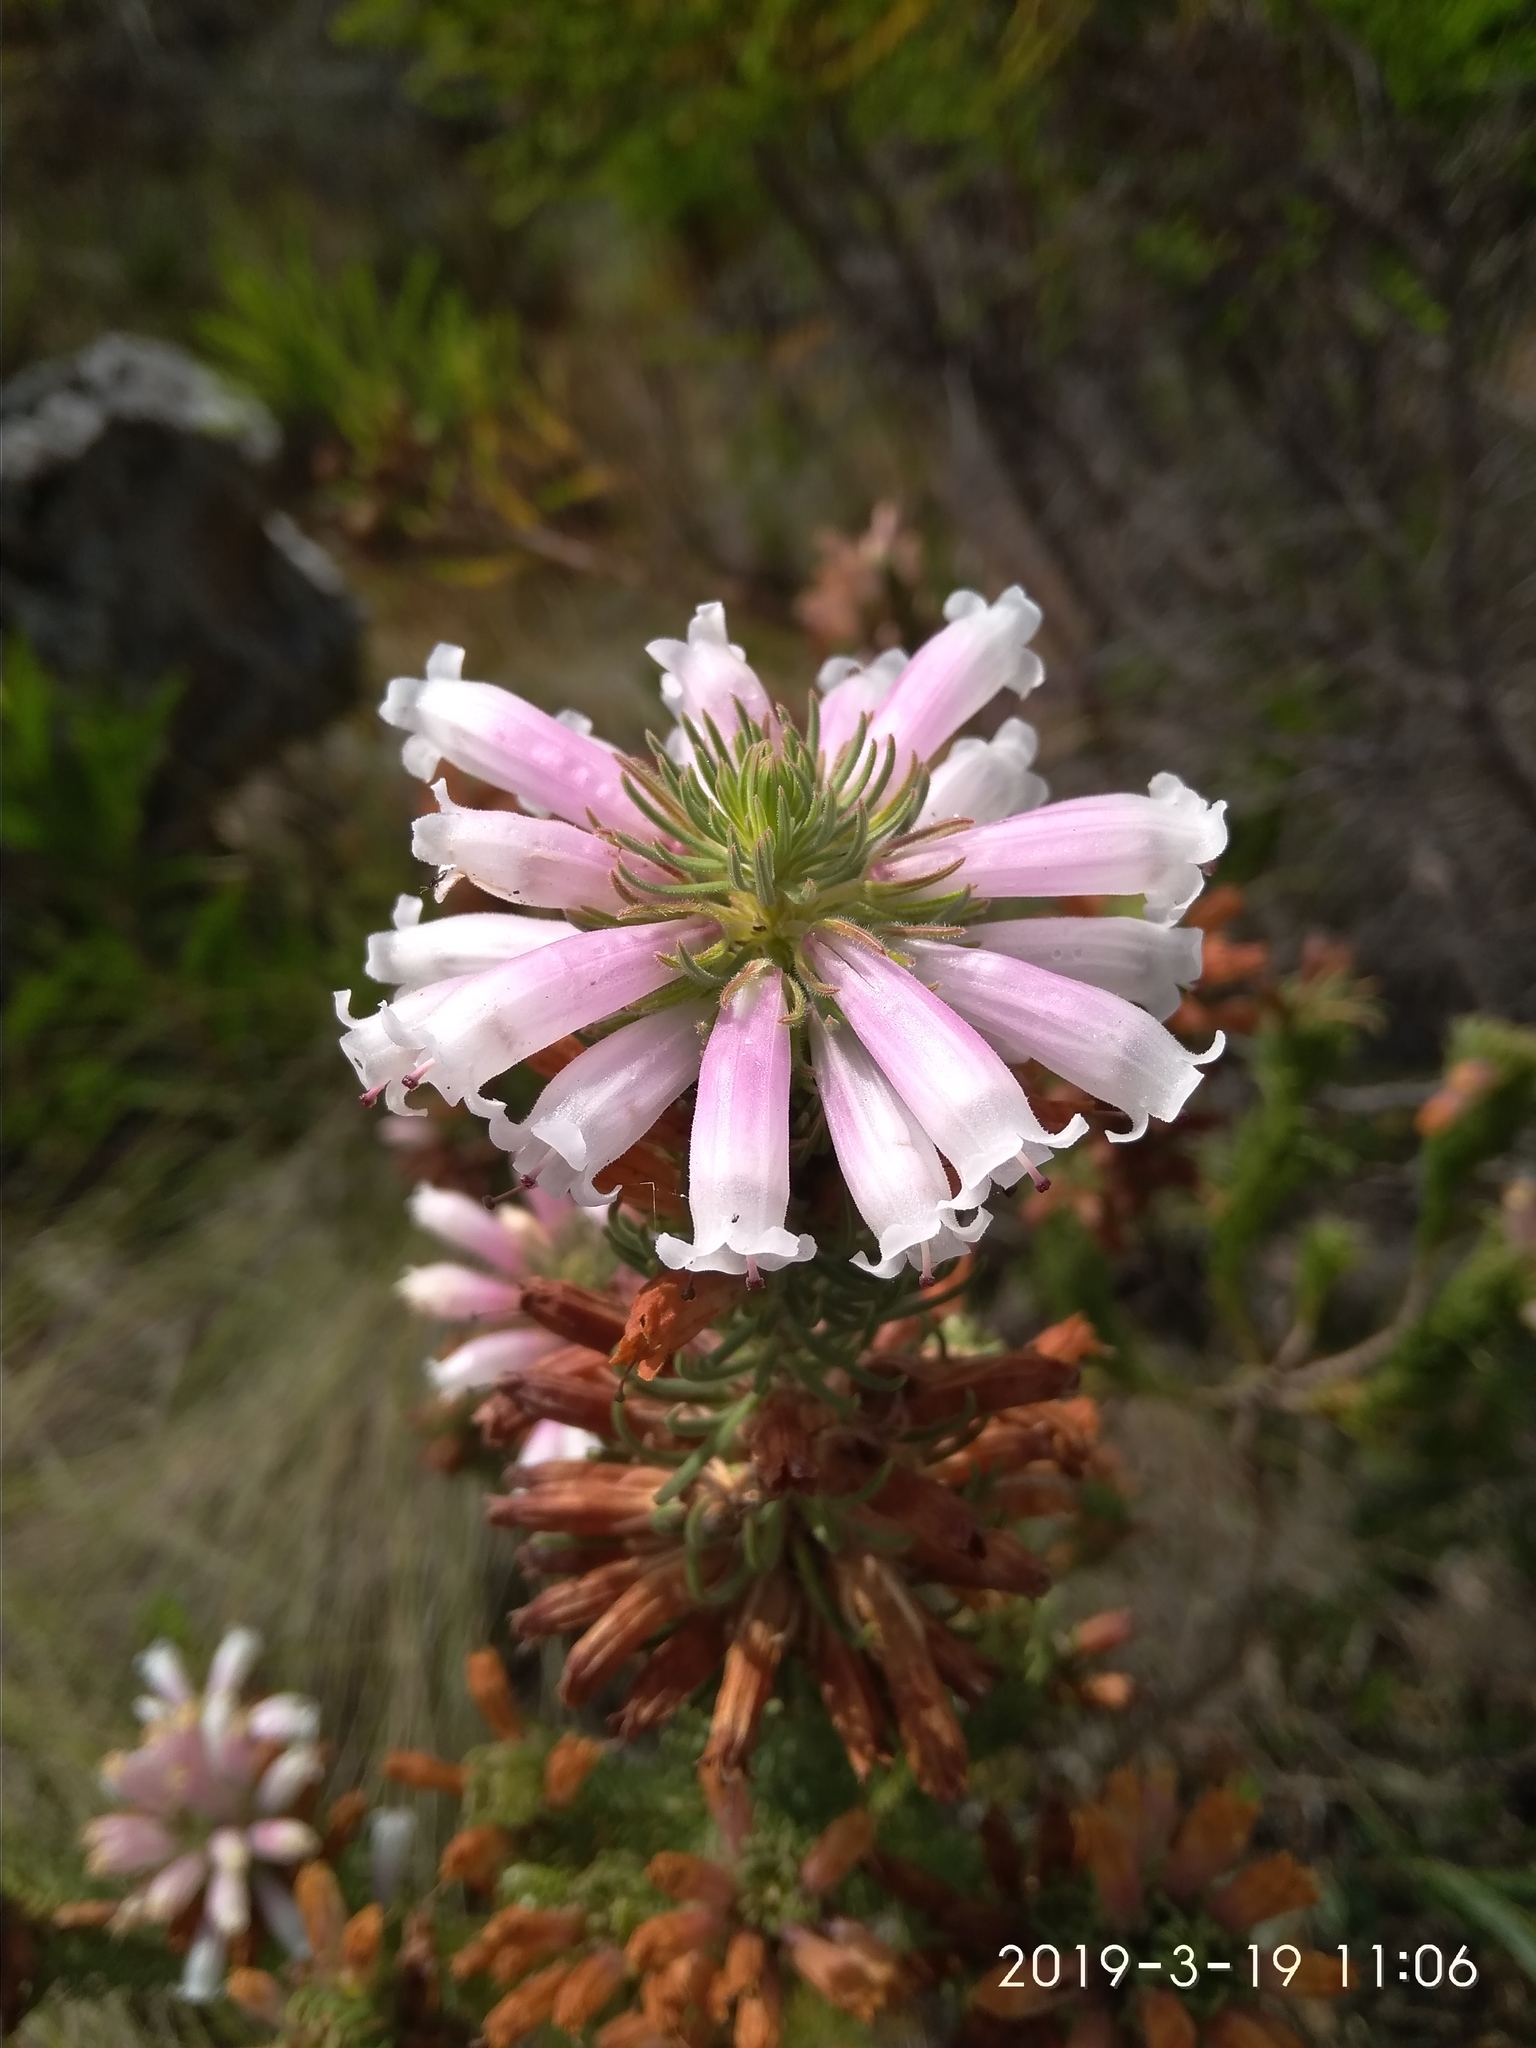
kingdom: Plantae
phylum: Tracheophyta
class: Magnoliopsida
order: Ericales
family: Ericaceae
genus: Erica
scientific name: Erica viscaria
